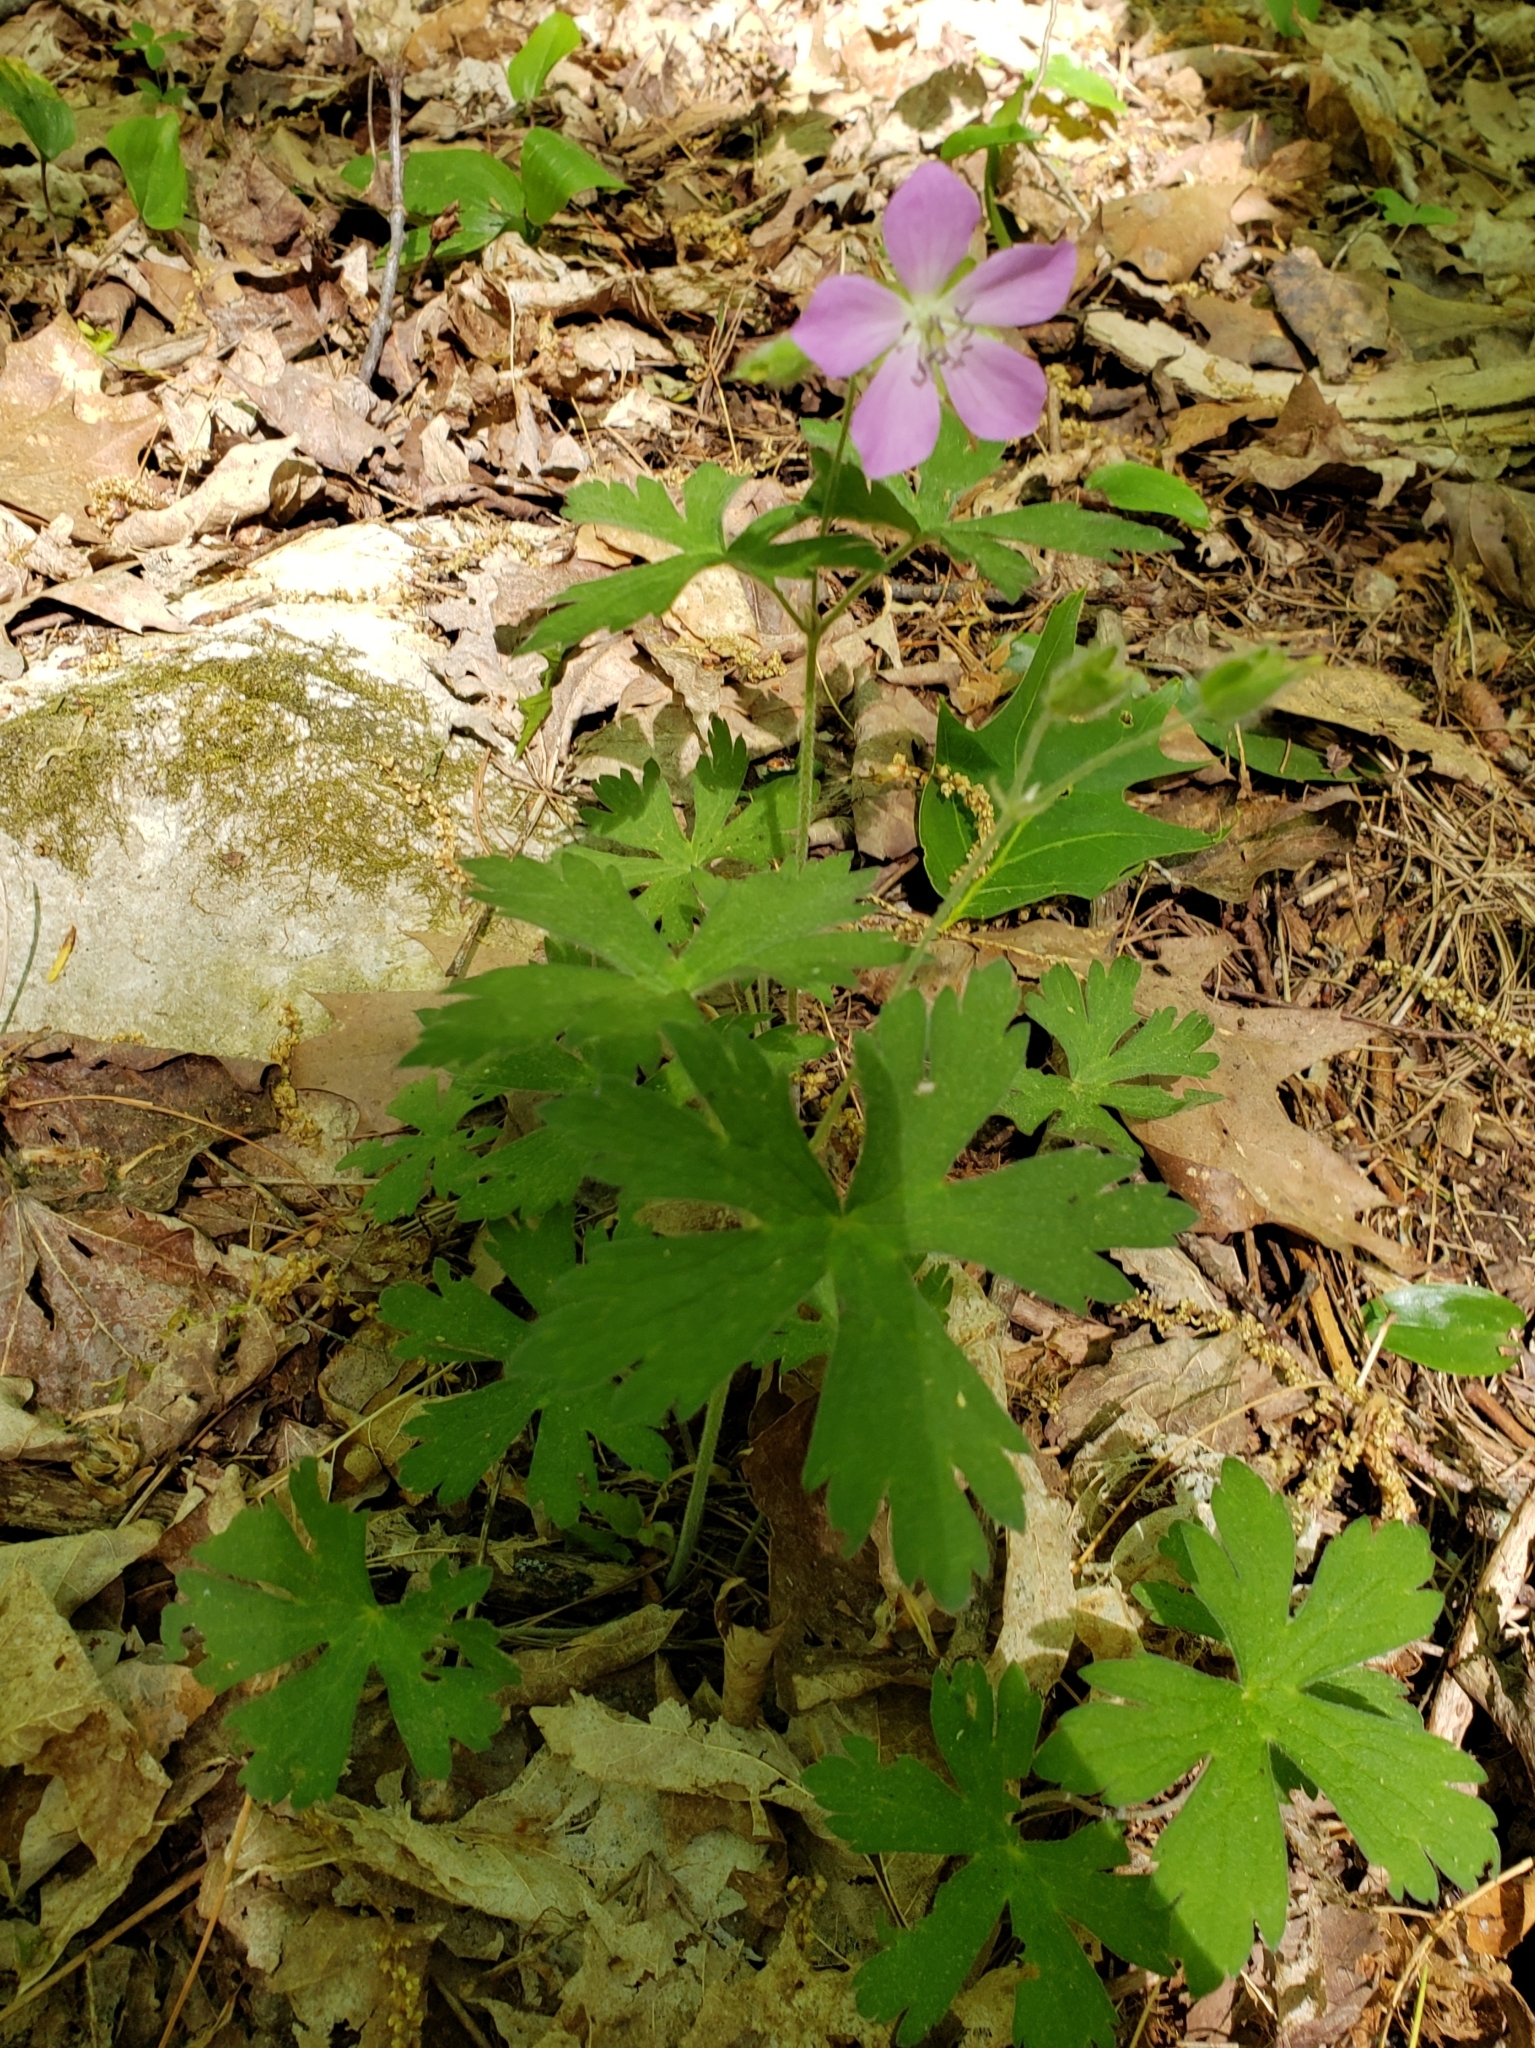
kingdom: Plantae
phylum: Tracheophyta
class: Magnoliopsida
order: Geraniales
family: Geraniaceae
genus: Geranium
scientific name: Geranium maculatum
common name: Spotted geranium
